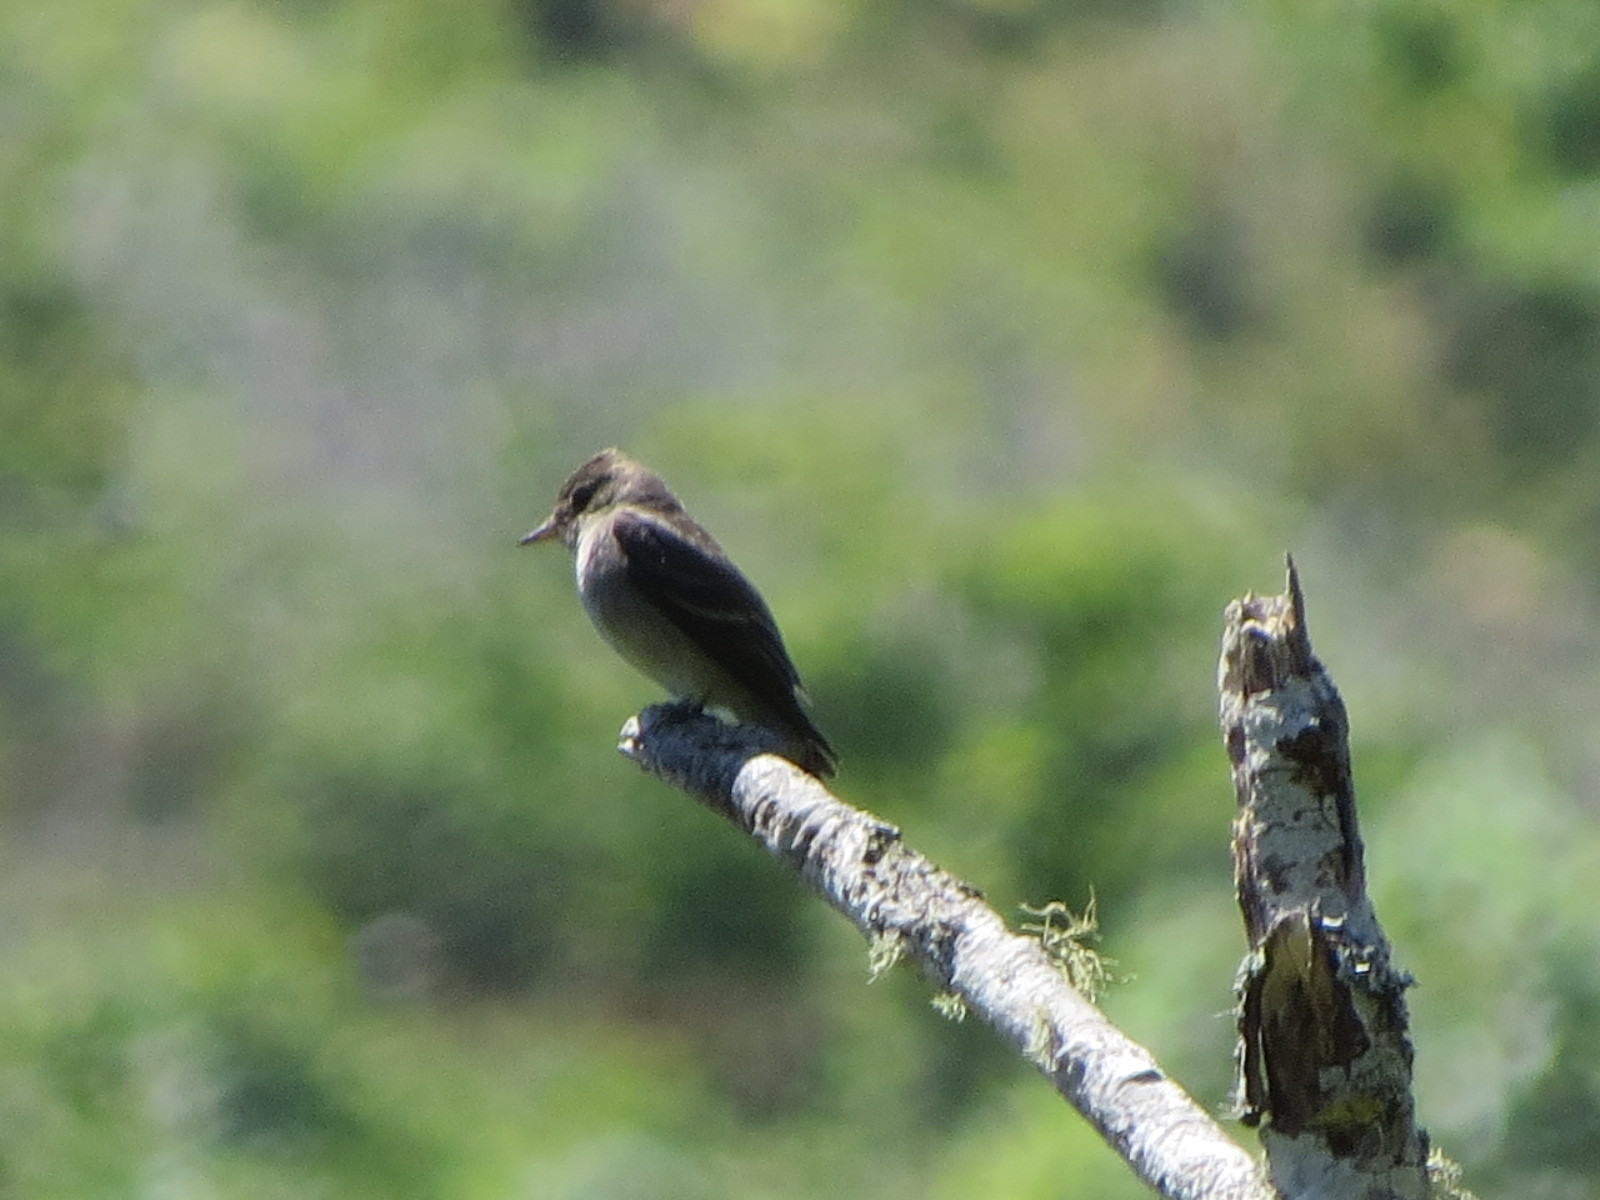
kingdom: Animalia
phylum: Chordata
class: Aves
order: Passeriformes
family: Tyrannidae
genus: Contopus
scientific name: Contopus sordidulus
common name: Western wood-pewee
